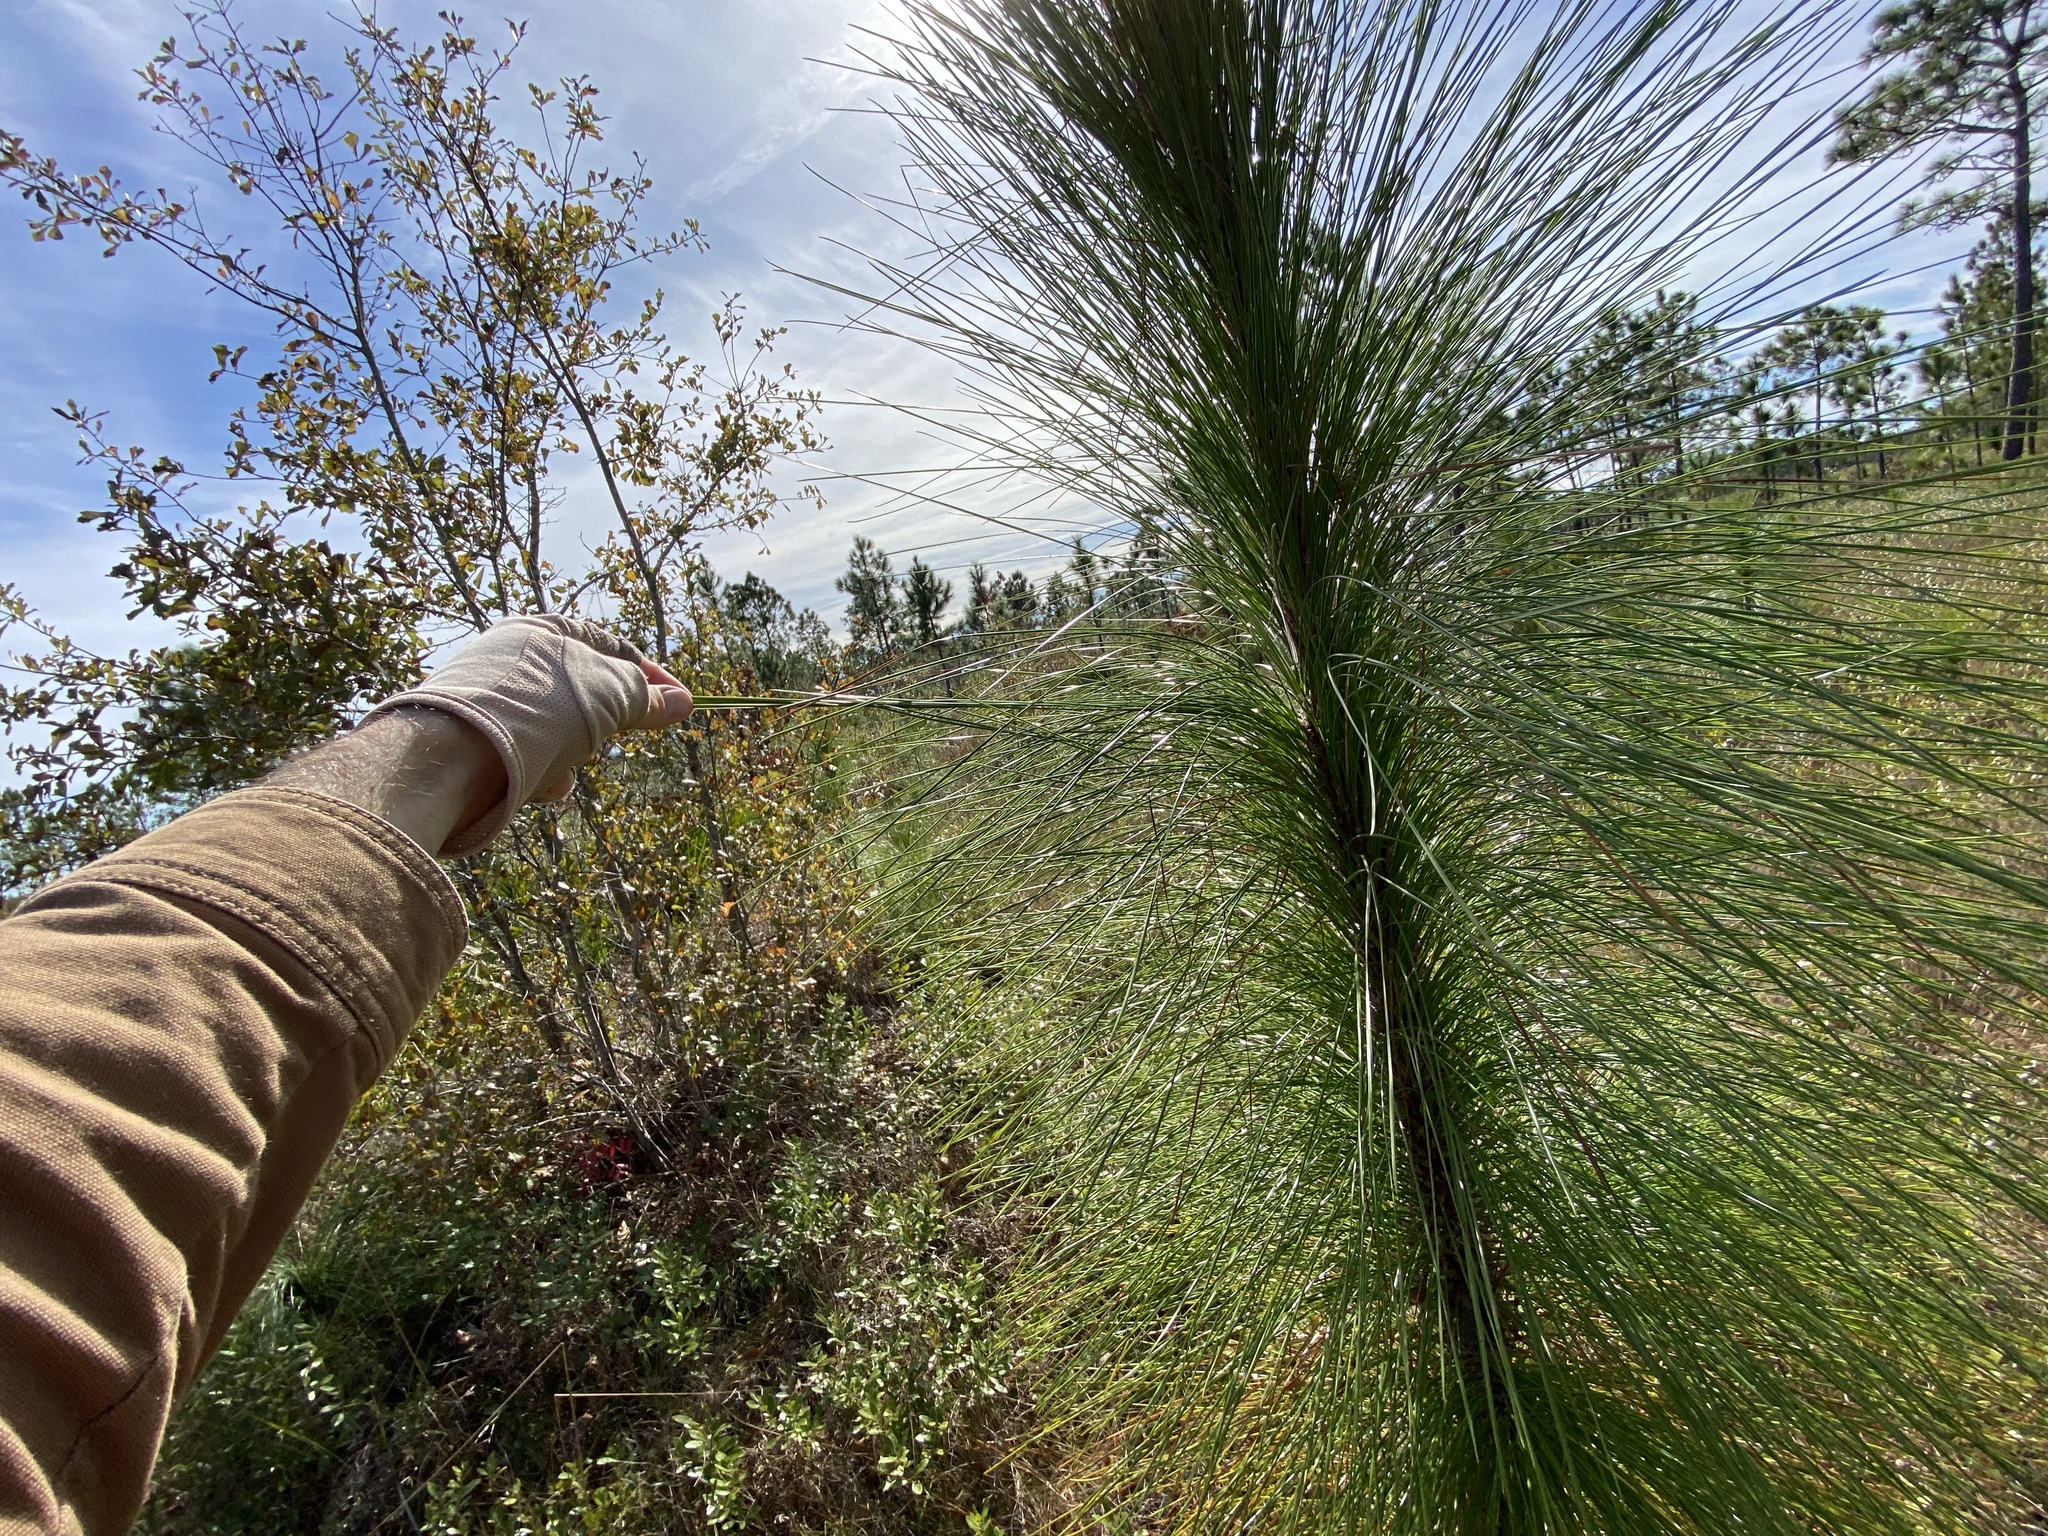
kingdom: Plantae
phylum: Tracheophyta
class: Pinopsida
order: Pinales
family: Pinaceae
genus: Pinus
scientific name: Pinus palustris
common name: Longleaf pine
